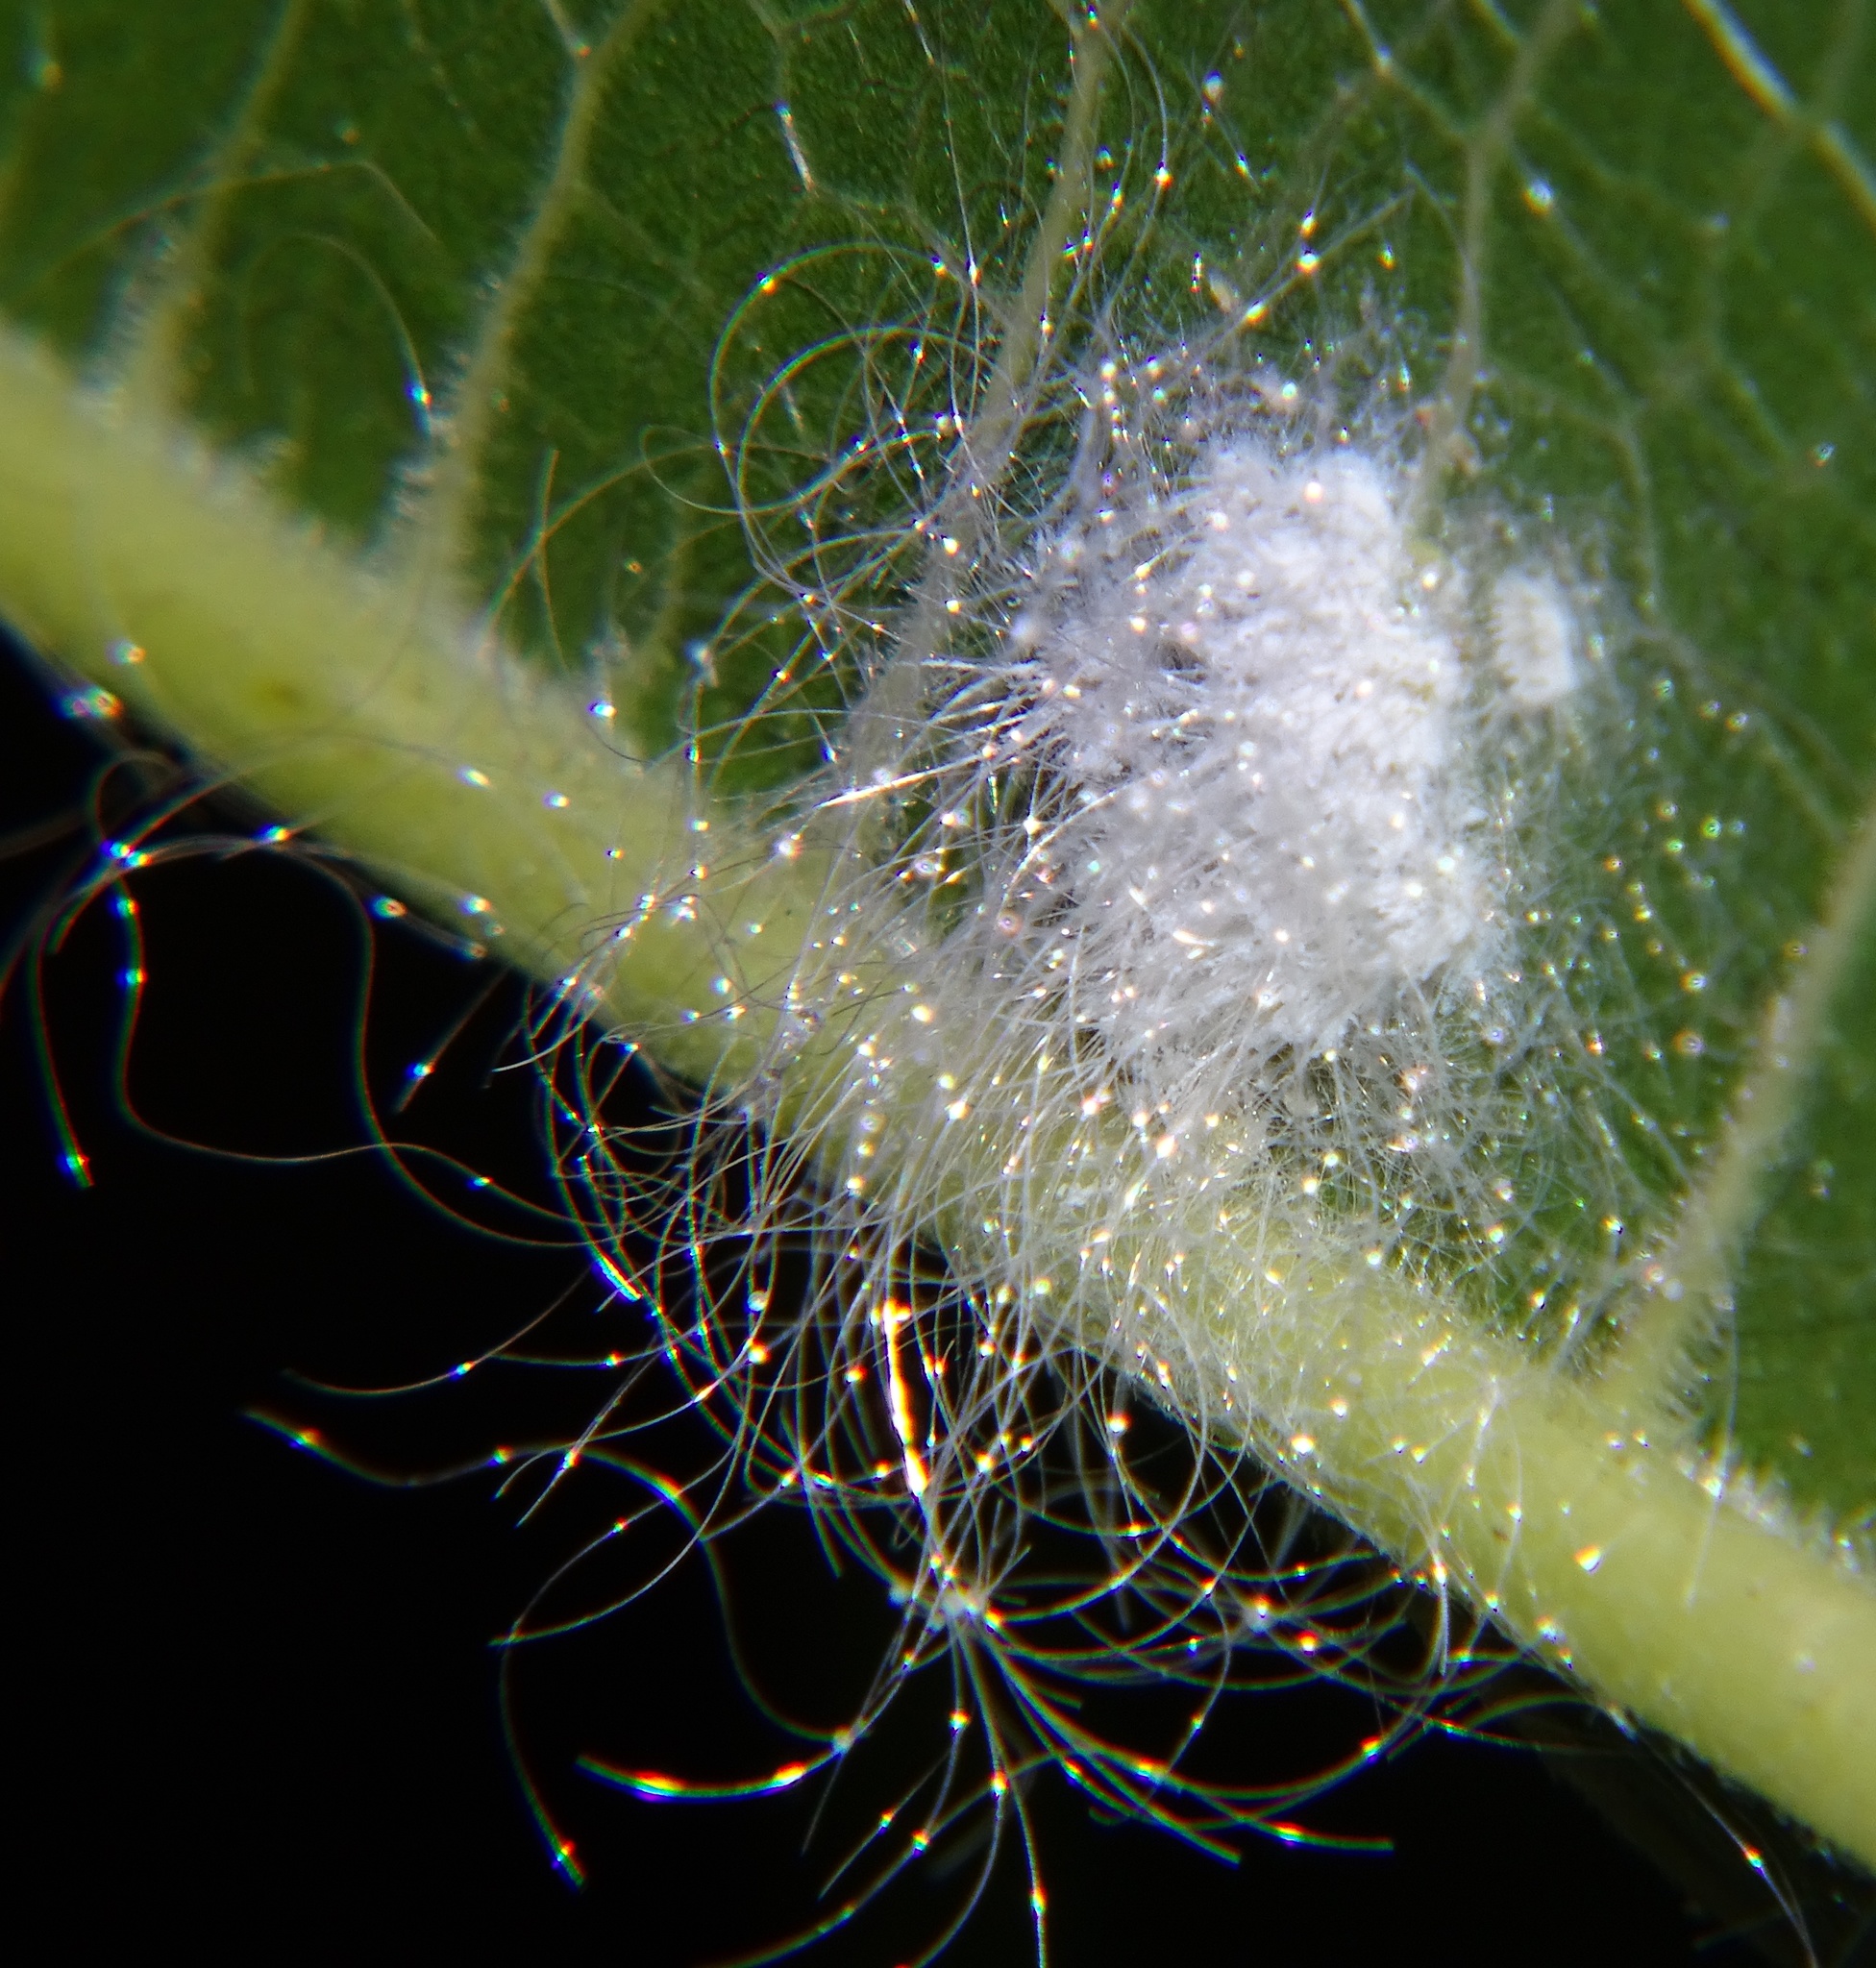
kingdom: Animalia
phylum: Arthropoda
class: Insecta
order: Hemiptera
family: Aleyrodidae
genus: Aleurodicus
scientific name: Aleurodicus dugesii
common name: Giant whitefly
